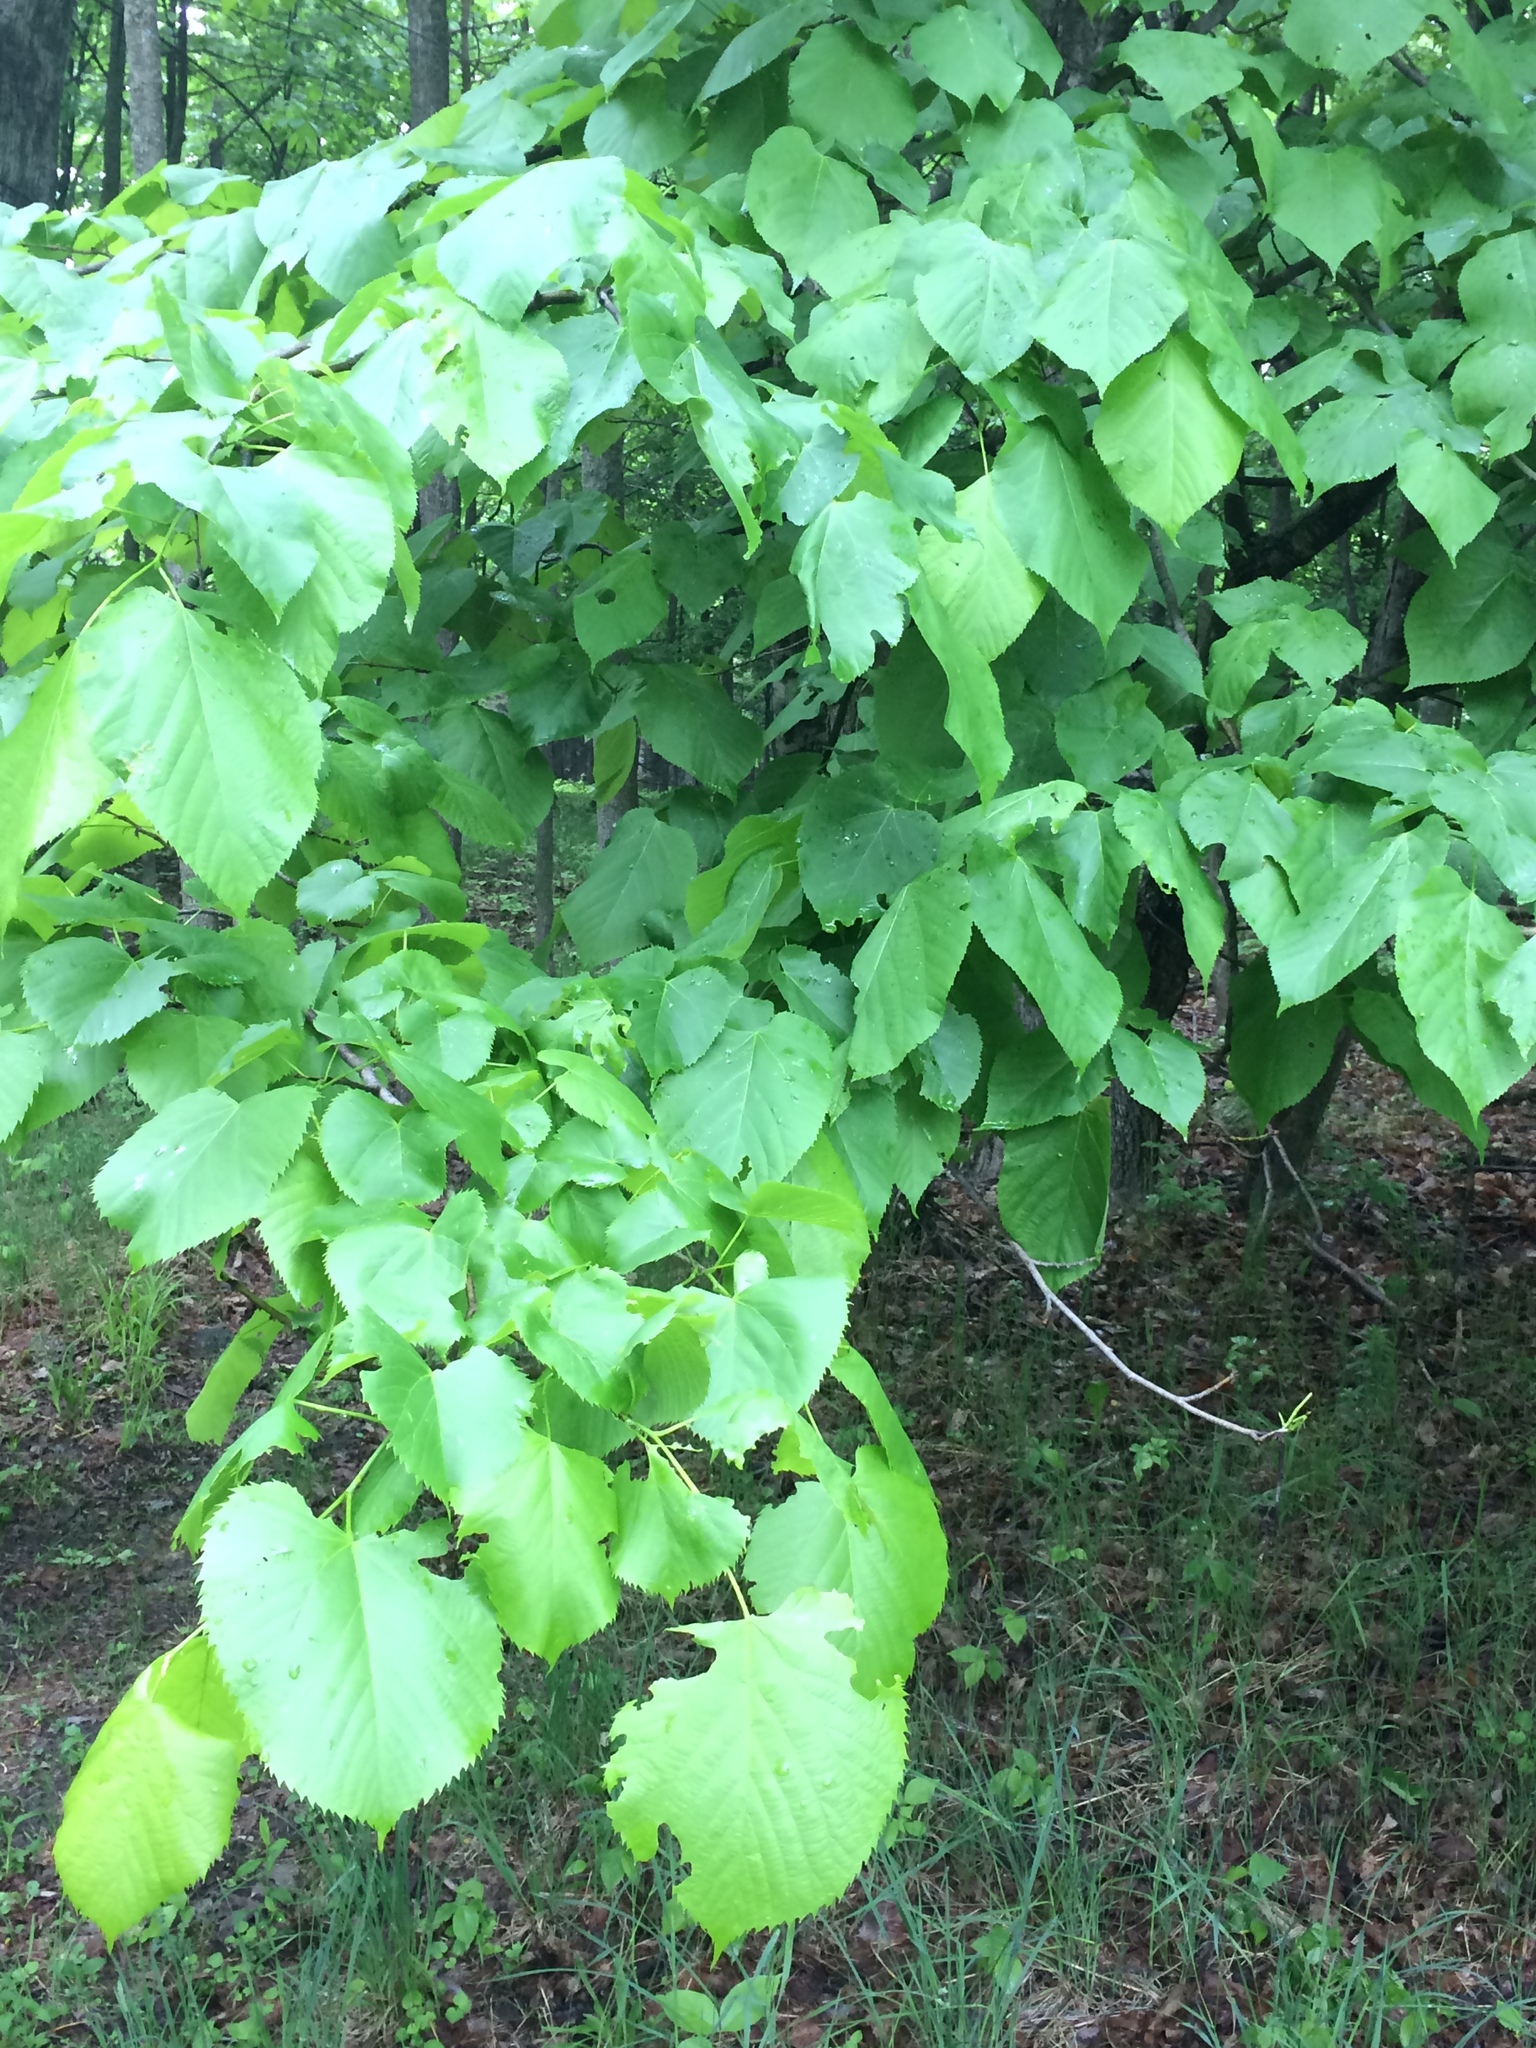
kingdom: Plantae
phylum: Tracheophyta
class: Magnoliopsida
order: Malvales
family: Malvaceae
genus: Tilia
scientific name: Tilia americana
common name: Basswood
